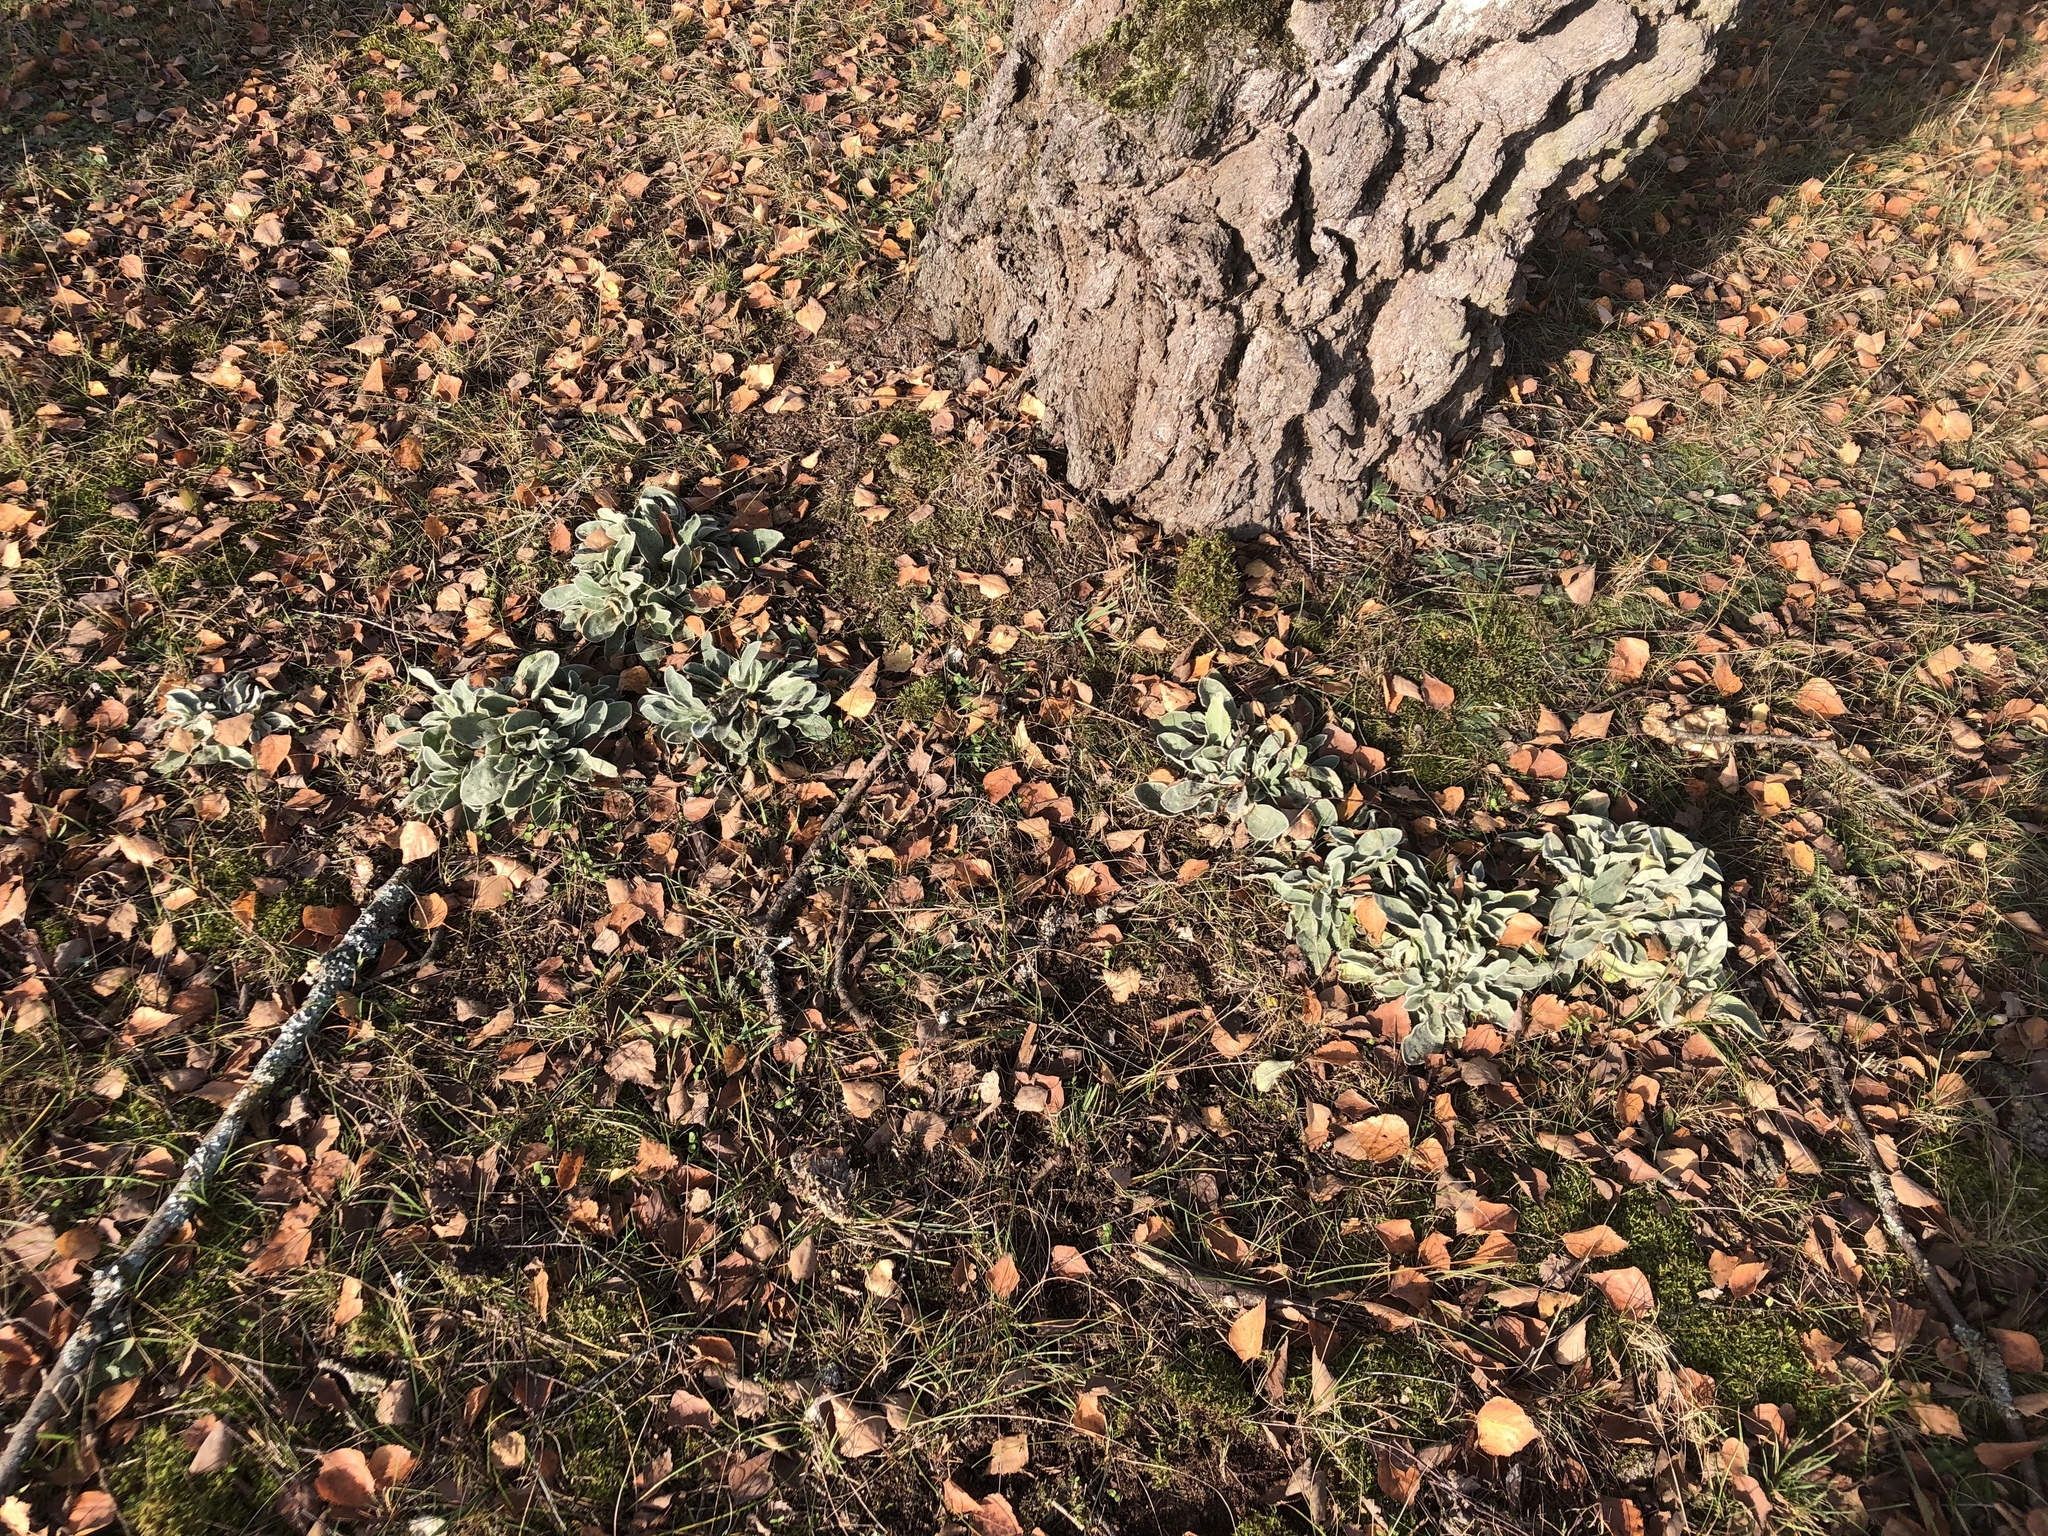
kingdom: Plantae
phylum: Tracheophyta
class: Magnoliopsida
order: Caryophyllales
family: Caryophyllaceae
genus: Silene
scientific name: Silene coronaria
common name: Rose campion
